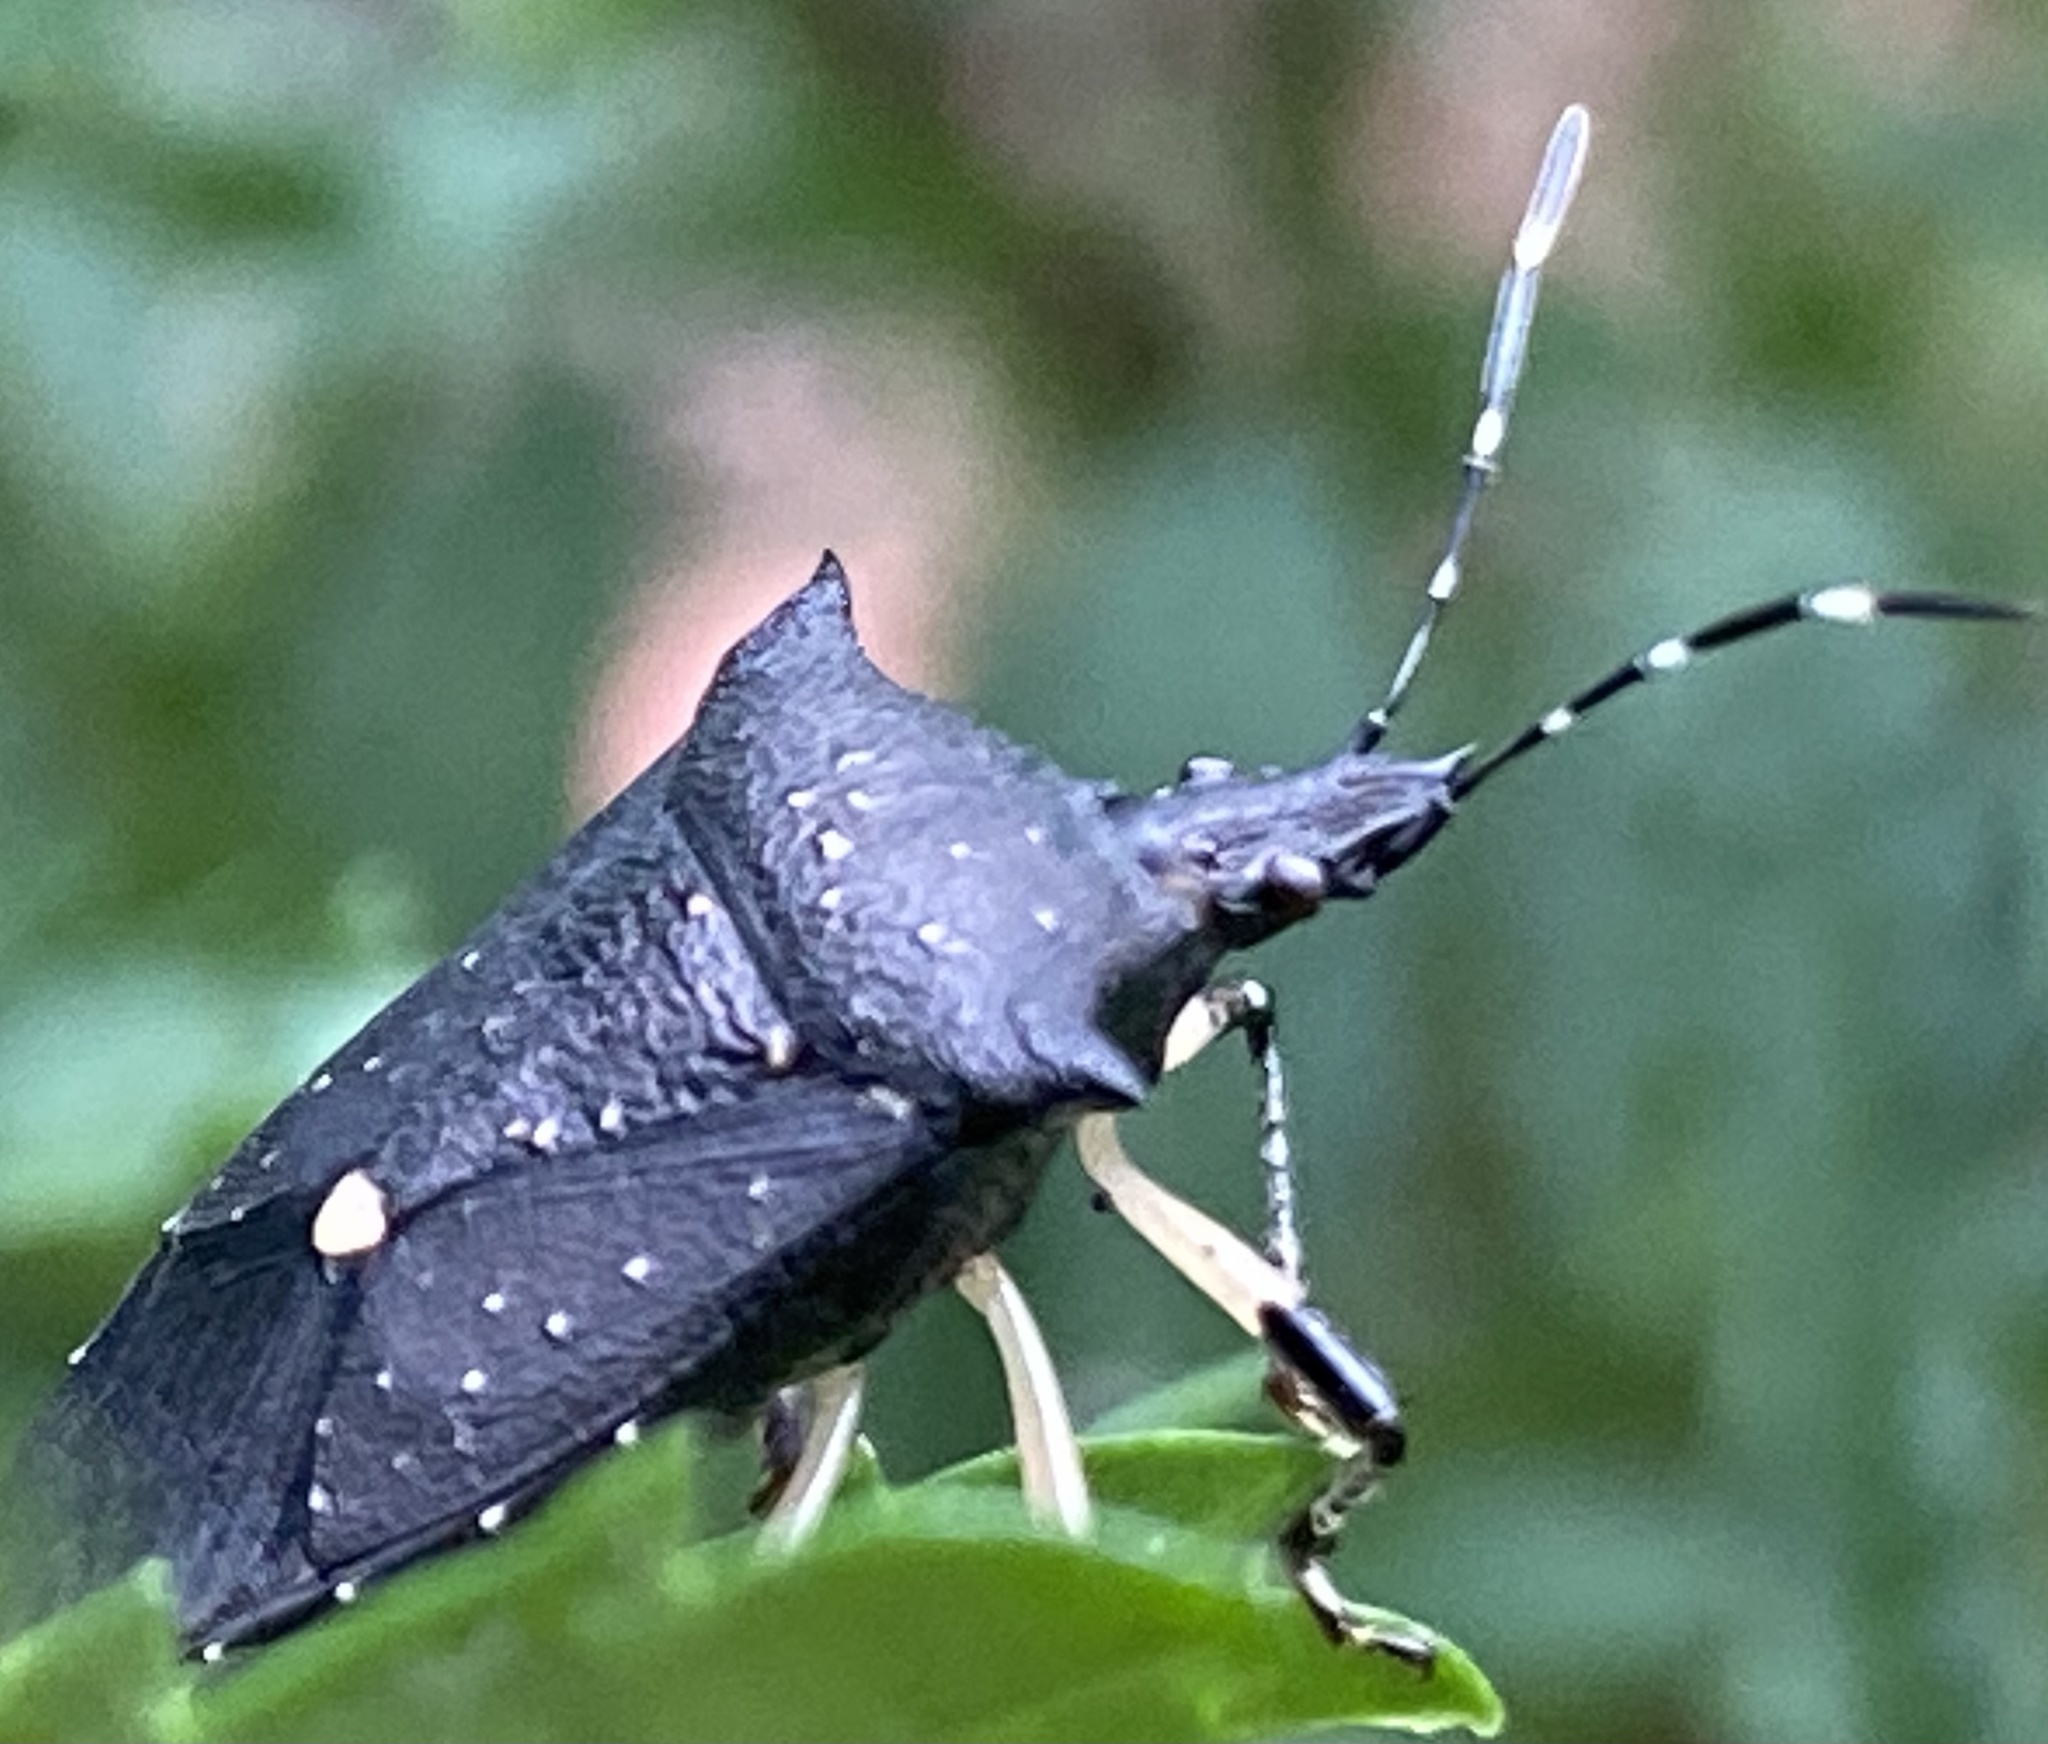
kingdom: Animalia
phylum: Arthropoda
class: Insecta
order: Hemiptera
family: Pentatomidae
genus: Proxys
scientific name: Proxys punctulatus
